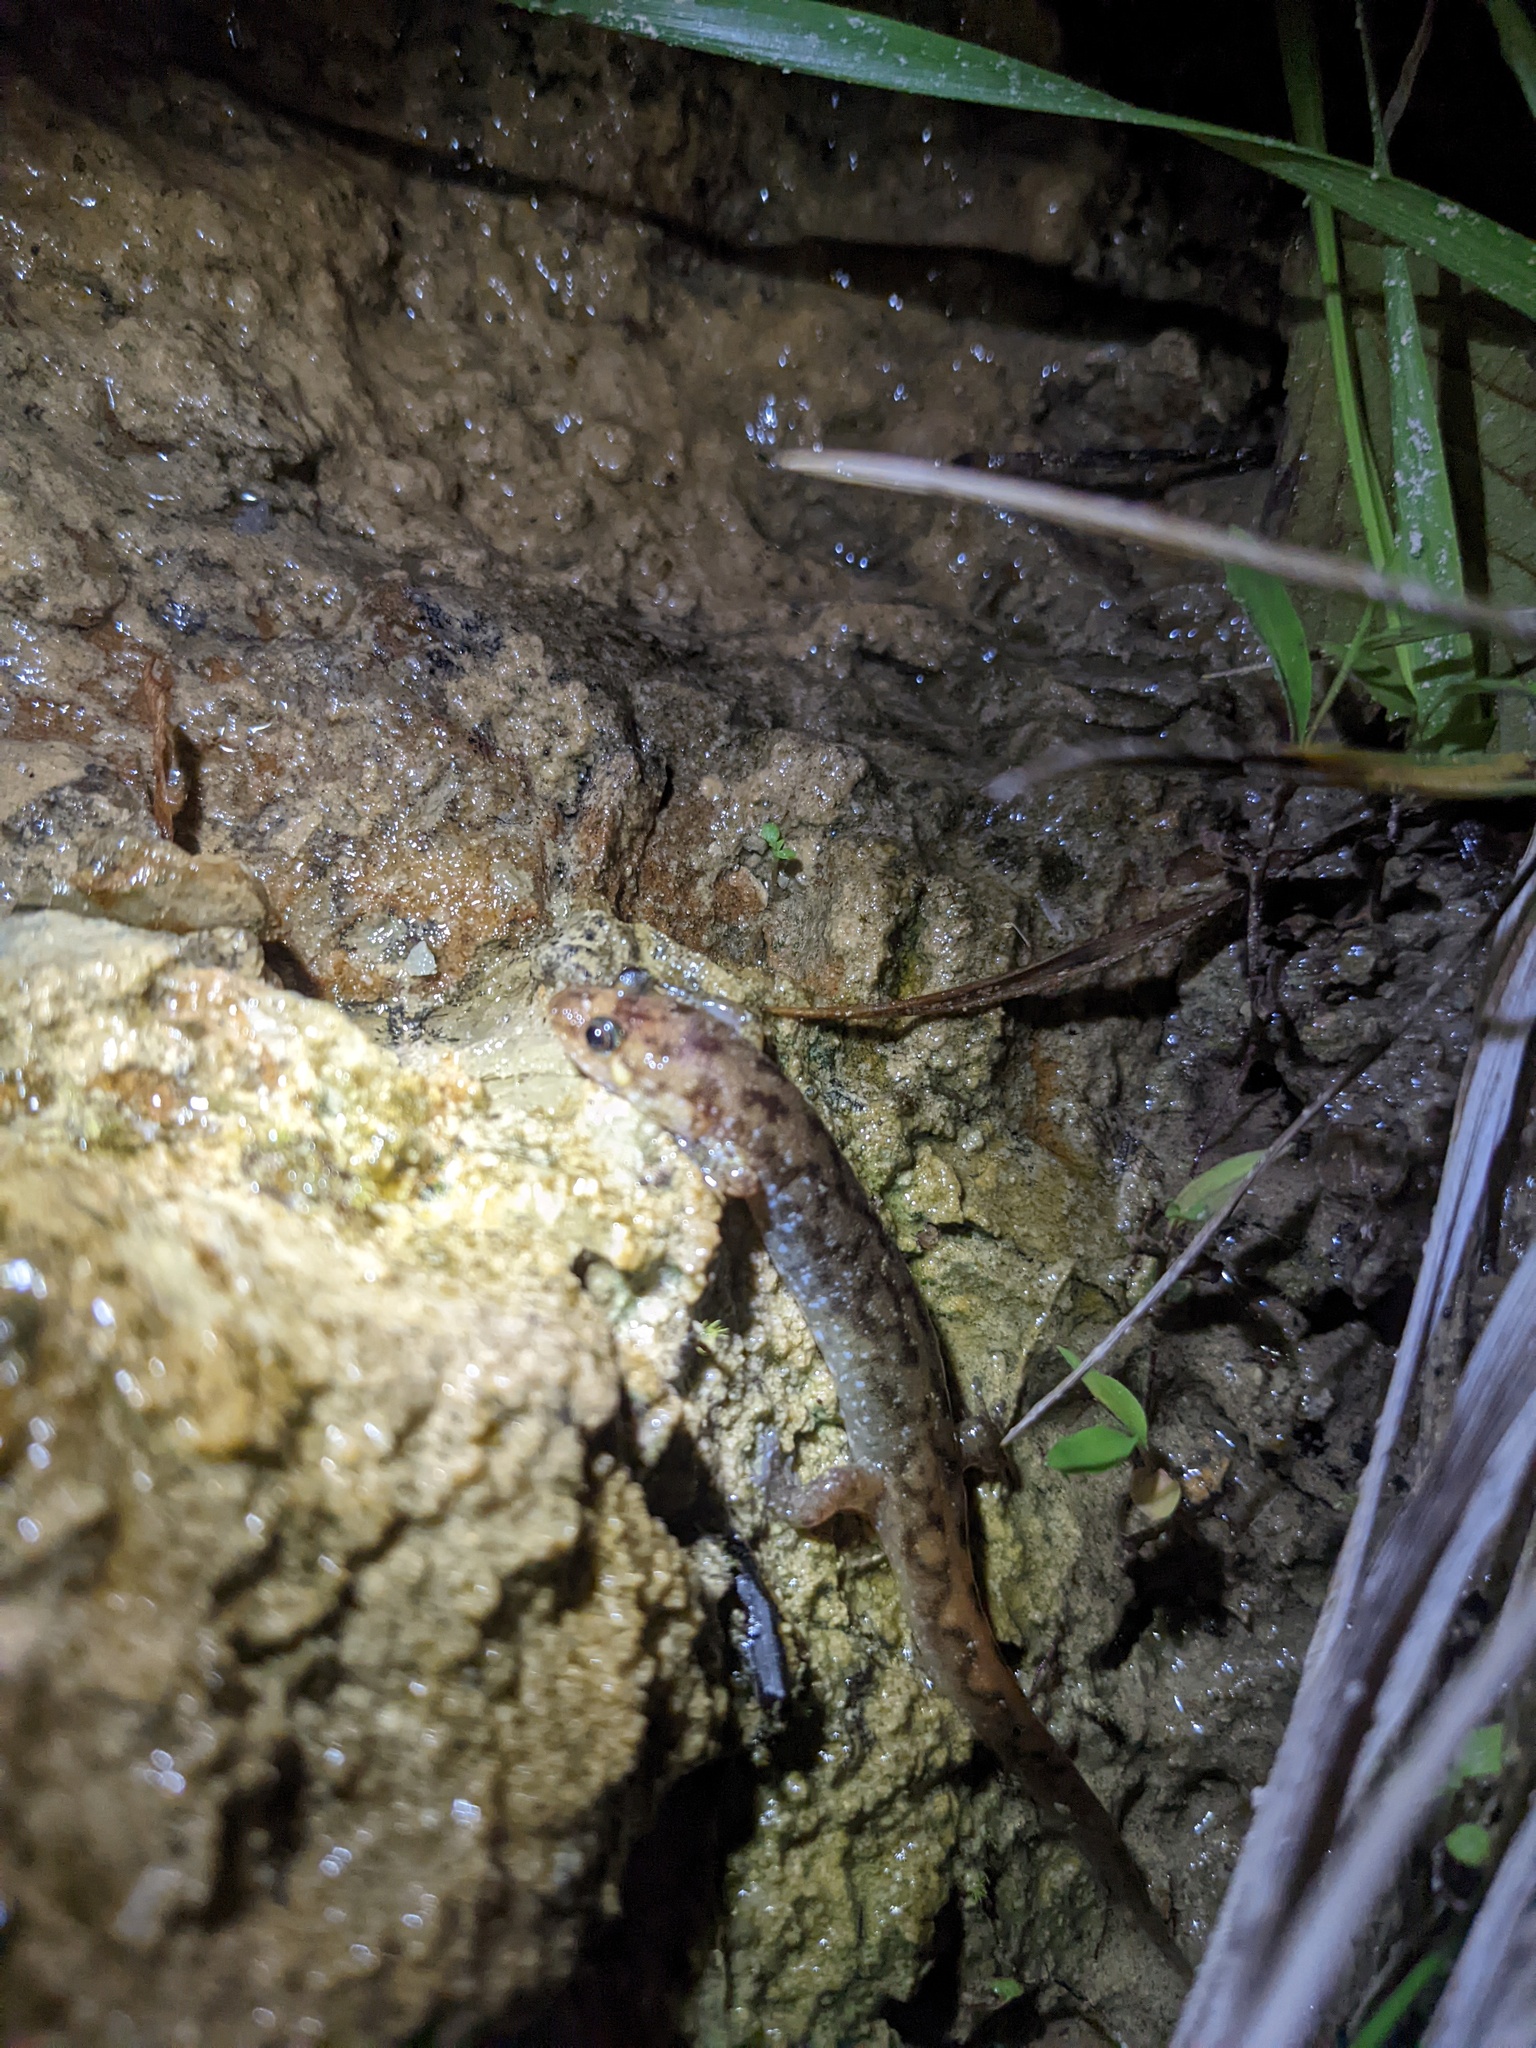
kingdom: Animalia
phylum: Chordata
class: Amphibia
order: Caudata
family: Plethodontidae
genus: Desmognathus
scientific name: Desmognathus monticola
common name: Seal salamander
